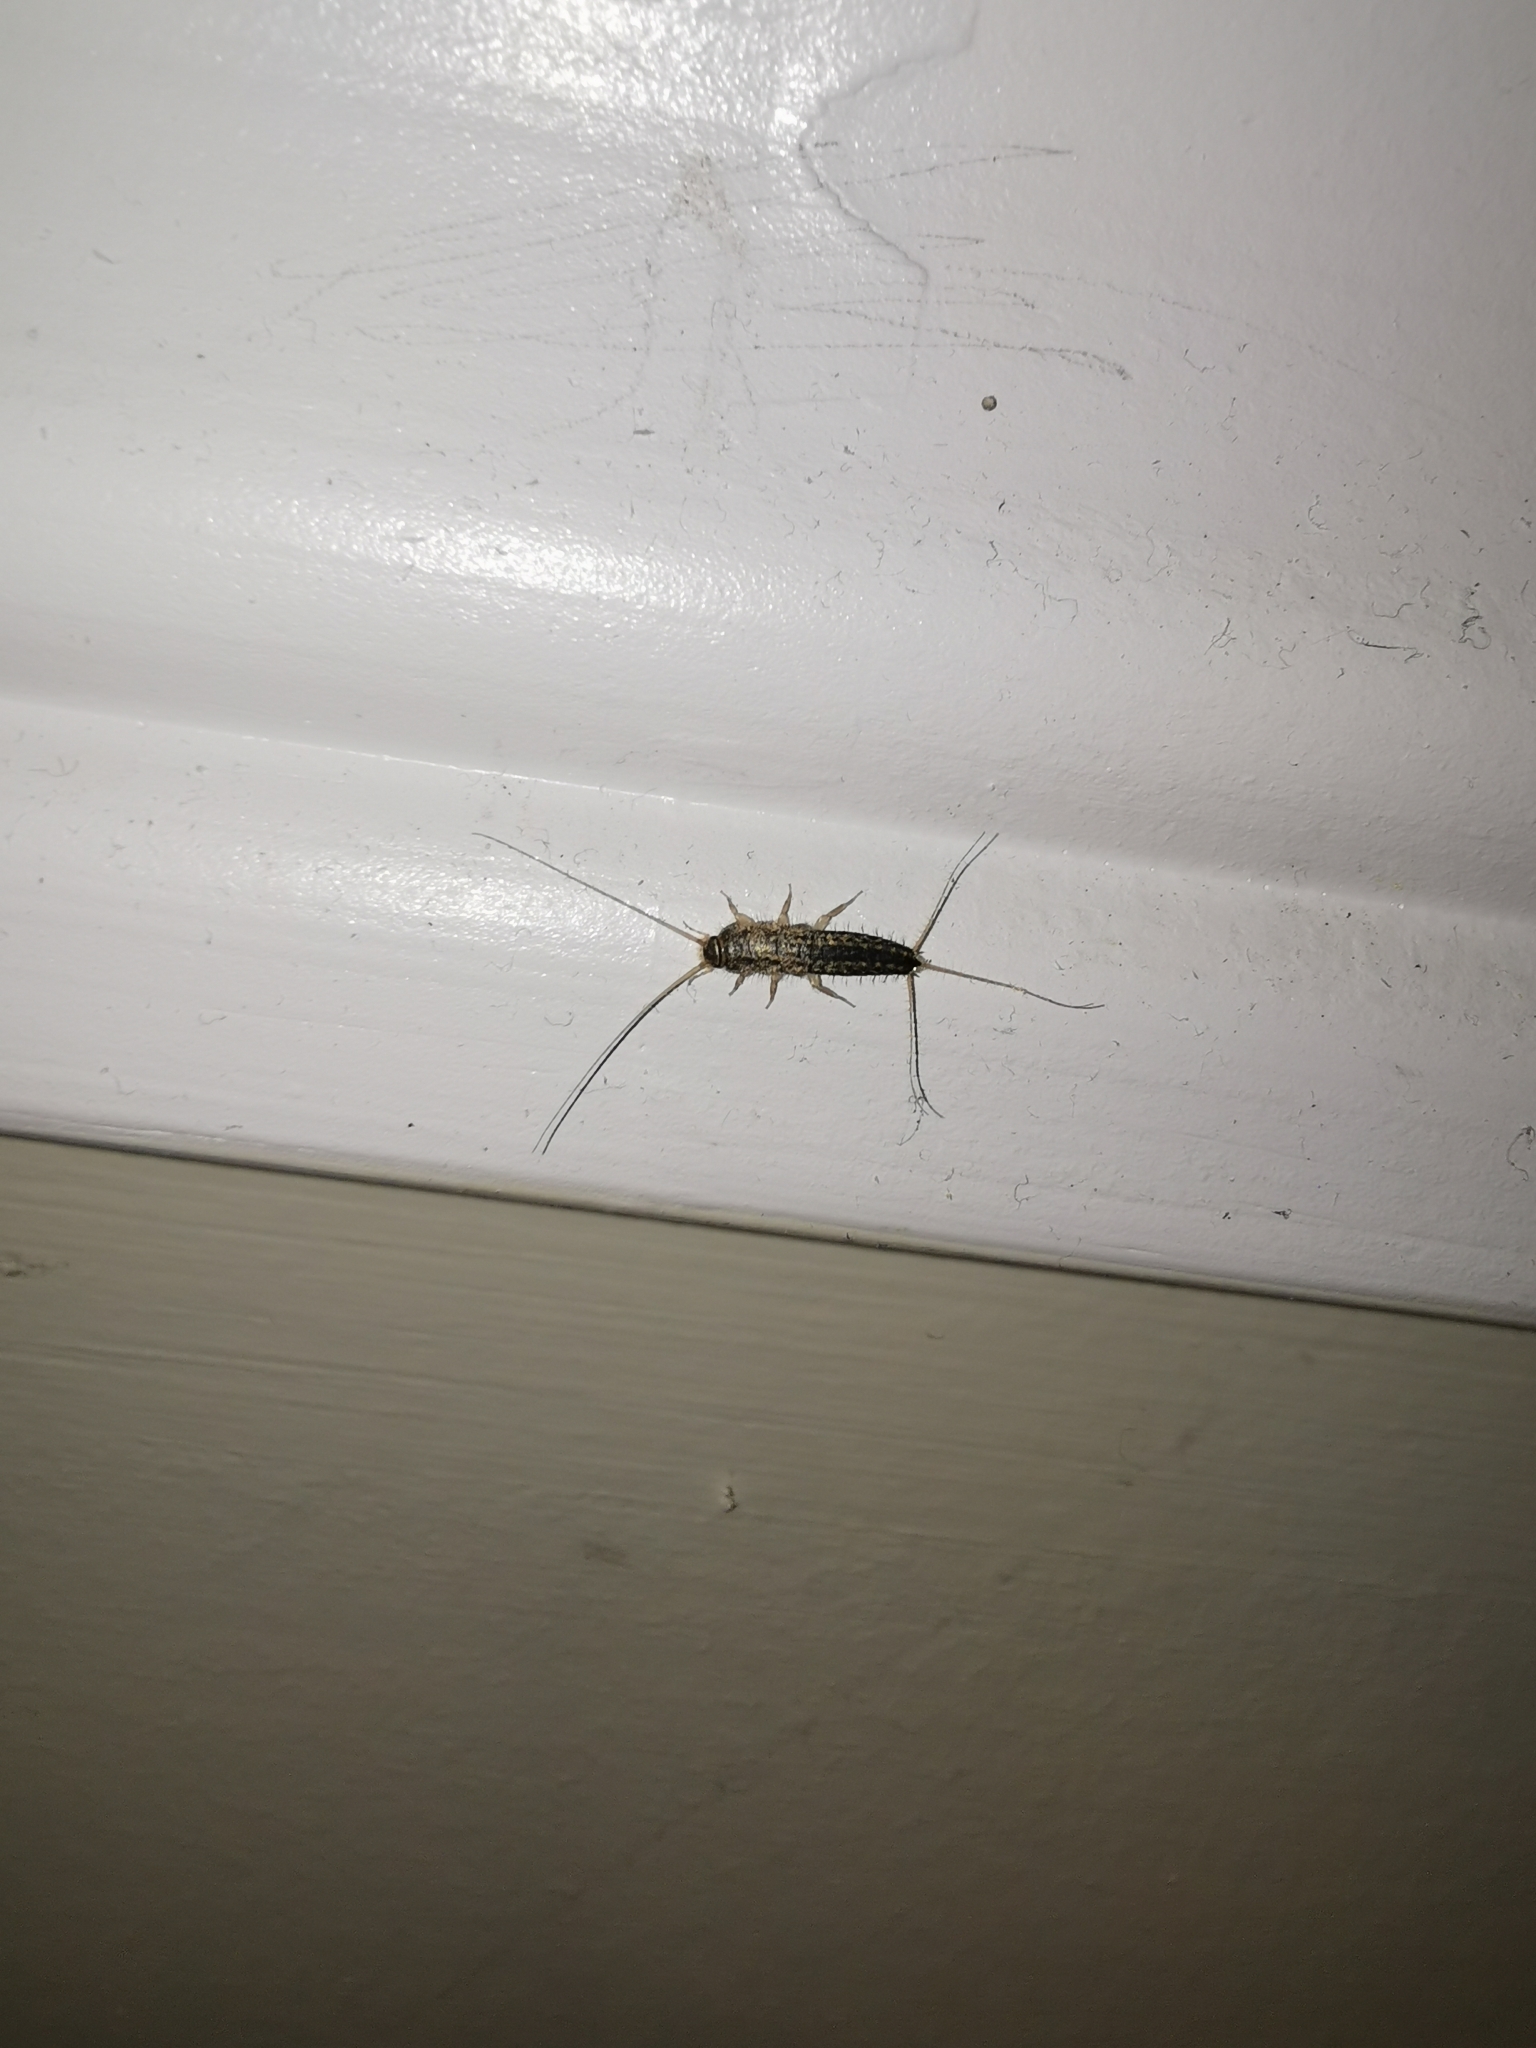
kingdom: Animalia
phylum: Arthropoda
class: Insecta
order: Zygentoma
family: Lepismatidae
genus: Ctenolepisma
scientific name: Ctenolepisma lineata
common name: Four-lined silverfish
